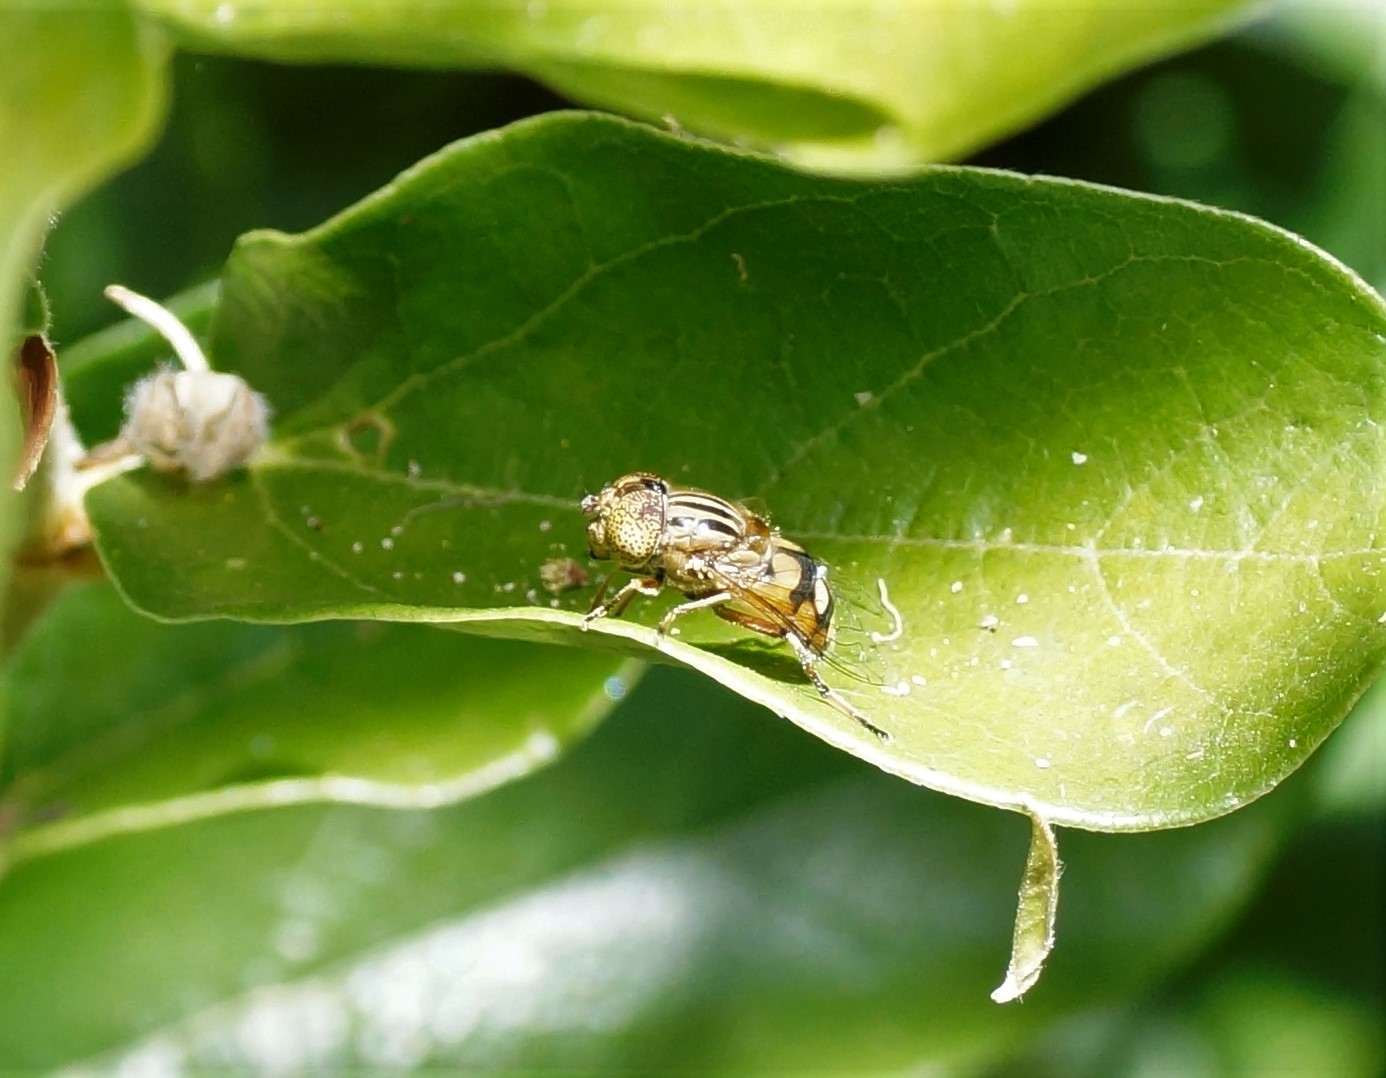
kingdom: Animalia
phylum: Arthropoda
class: Insecta
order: Diptera
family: Syrphidae
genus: Eristalinus
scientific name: Eristalinus punctulatus
